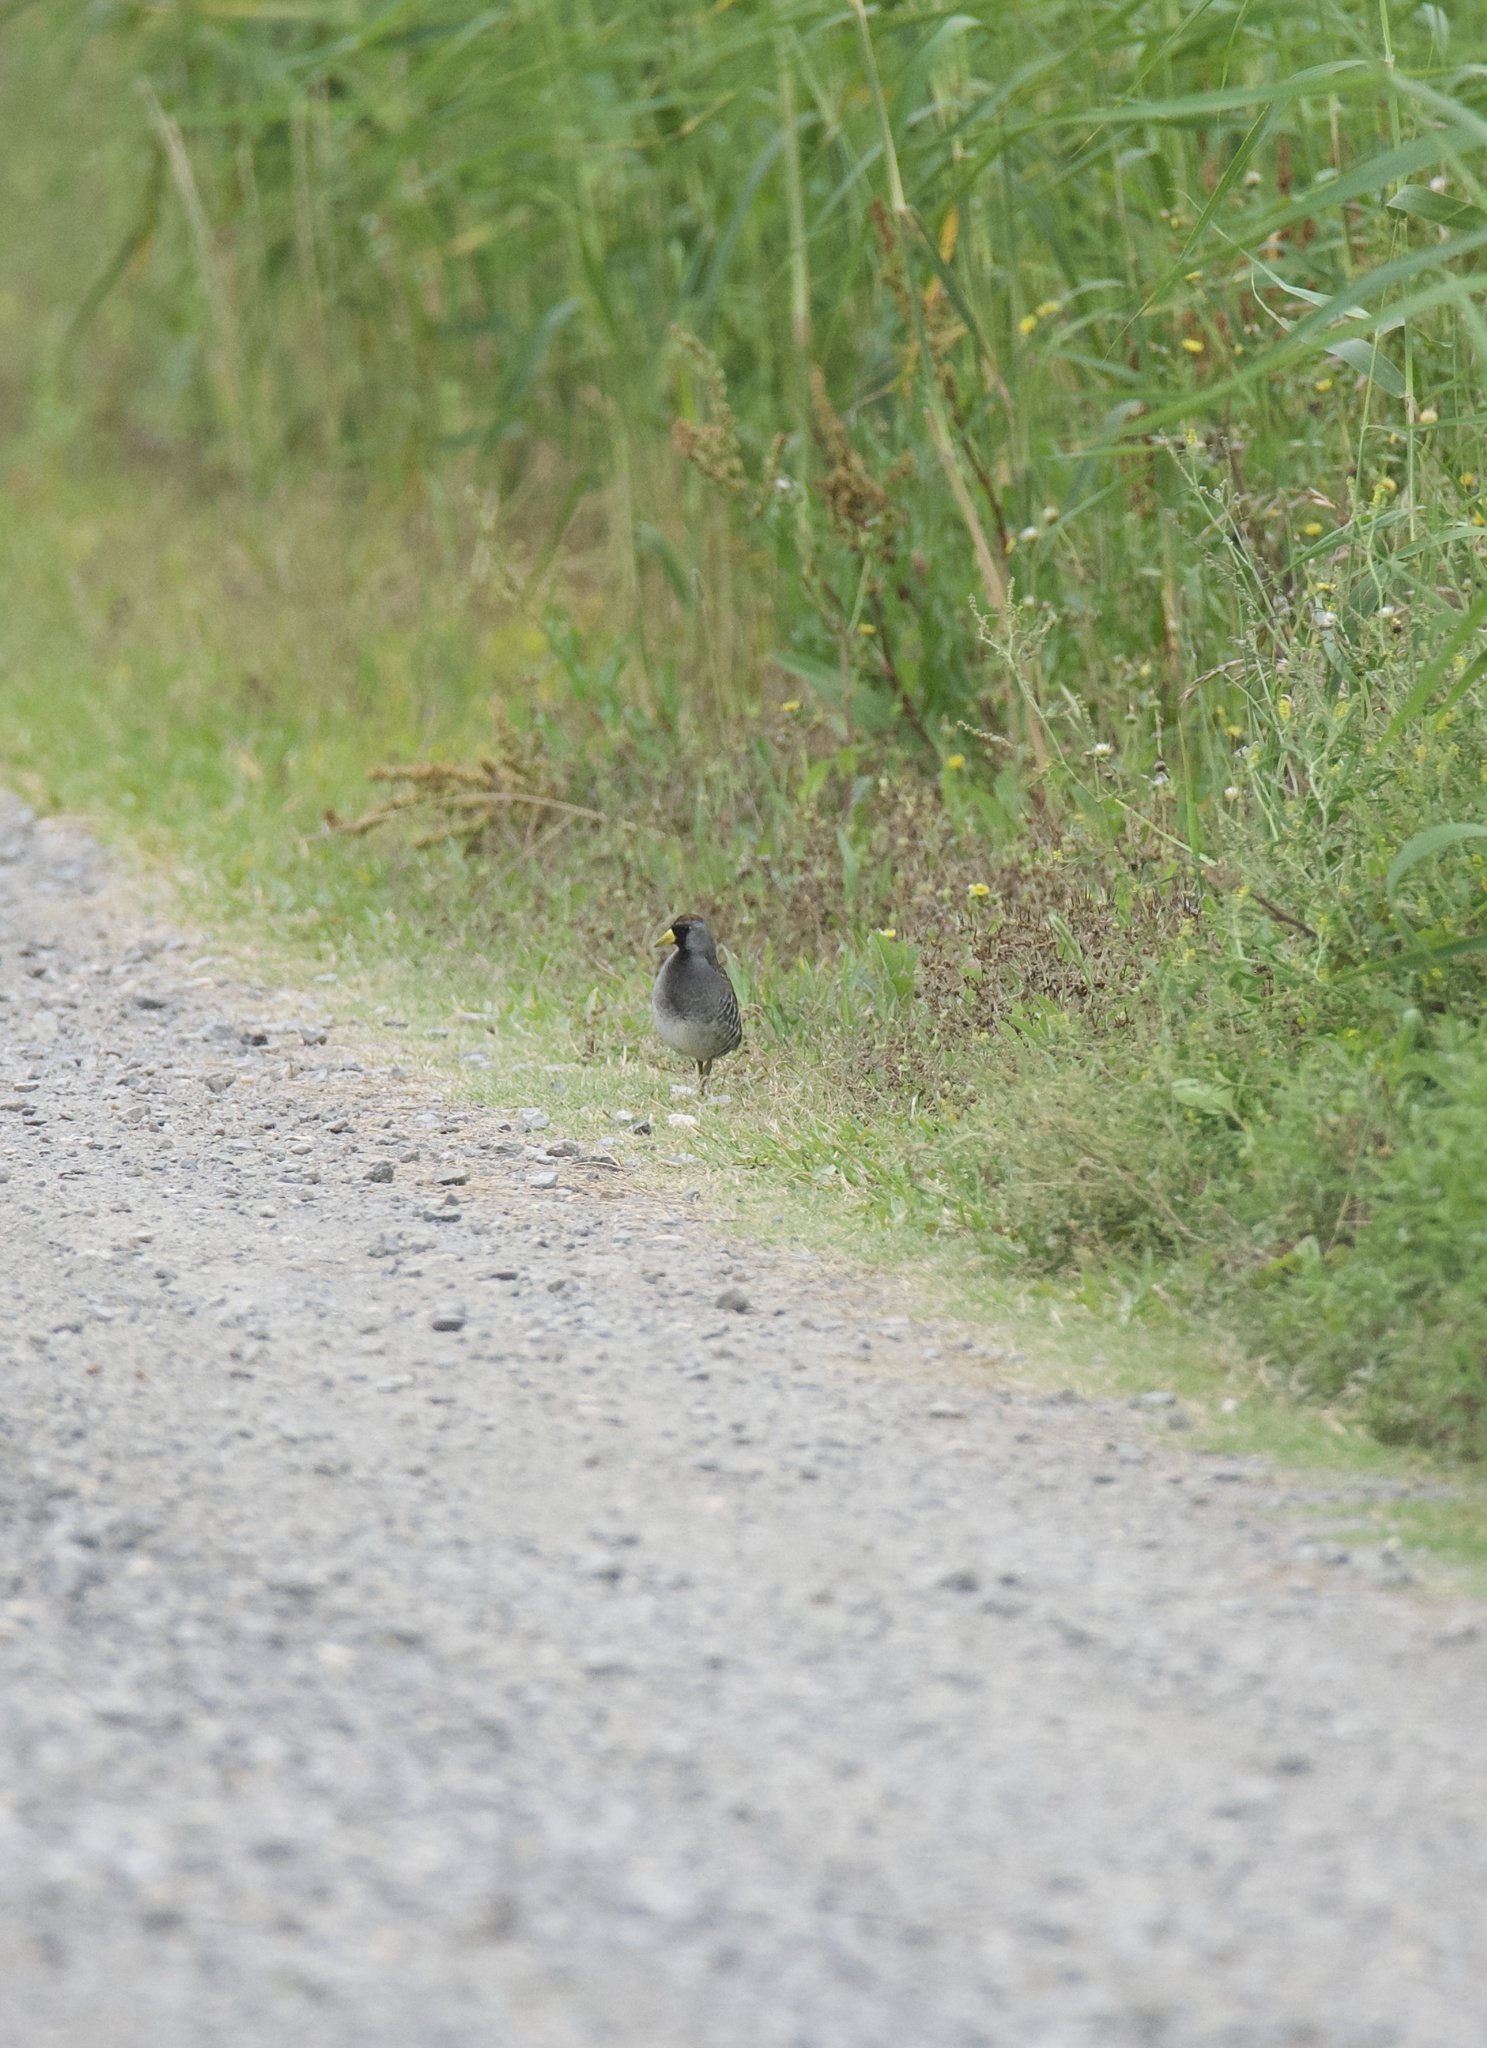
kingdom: Animalia
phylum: Chordata
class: Aves
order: Gruiformes
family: Rallidae
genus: Porzana
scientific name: Porzana carolina
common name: Sora
